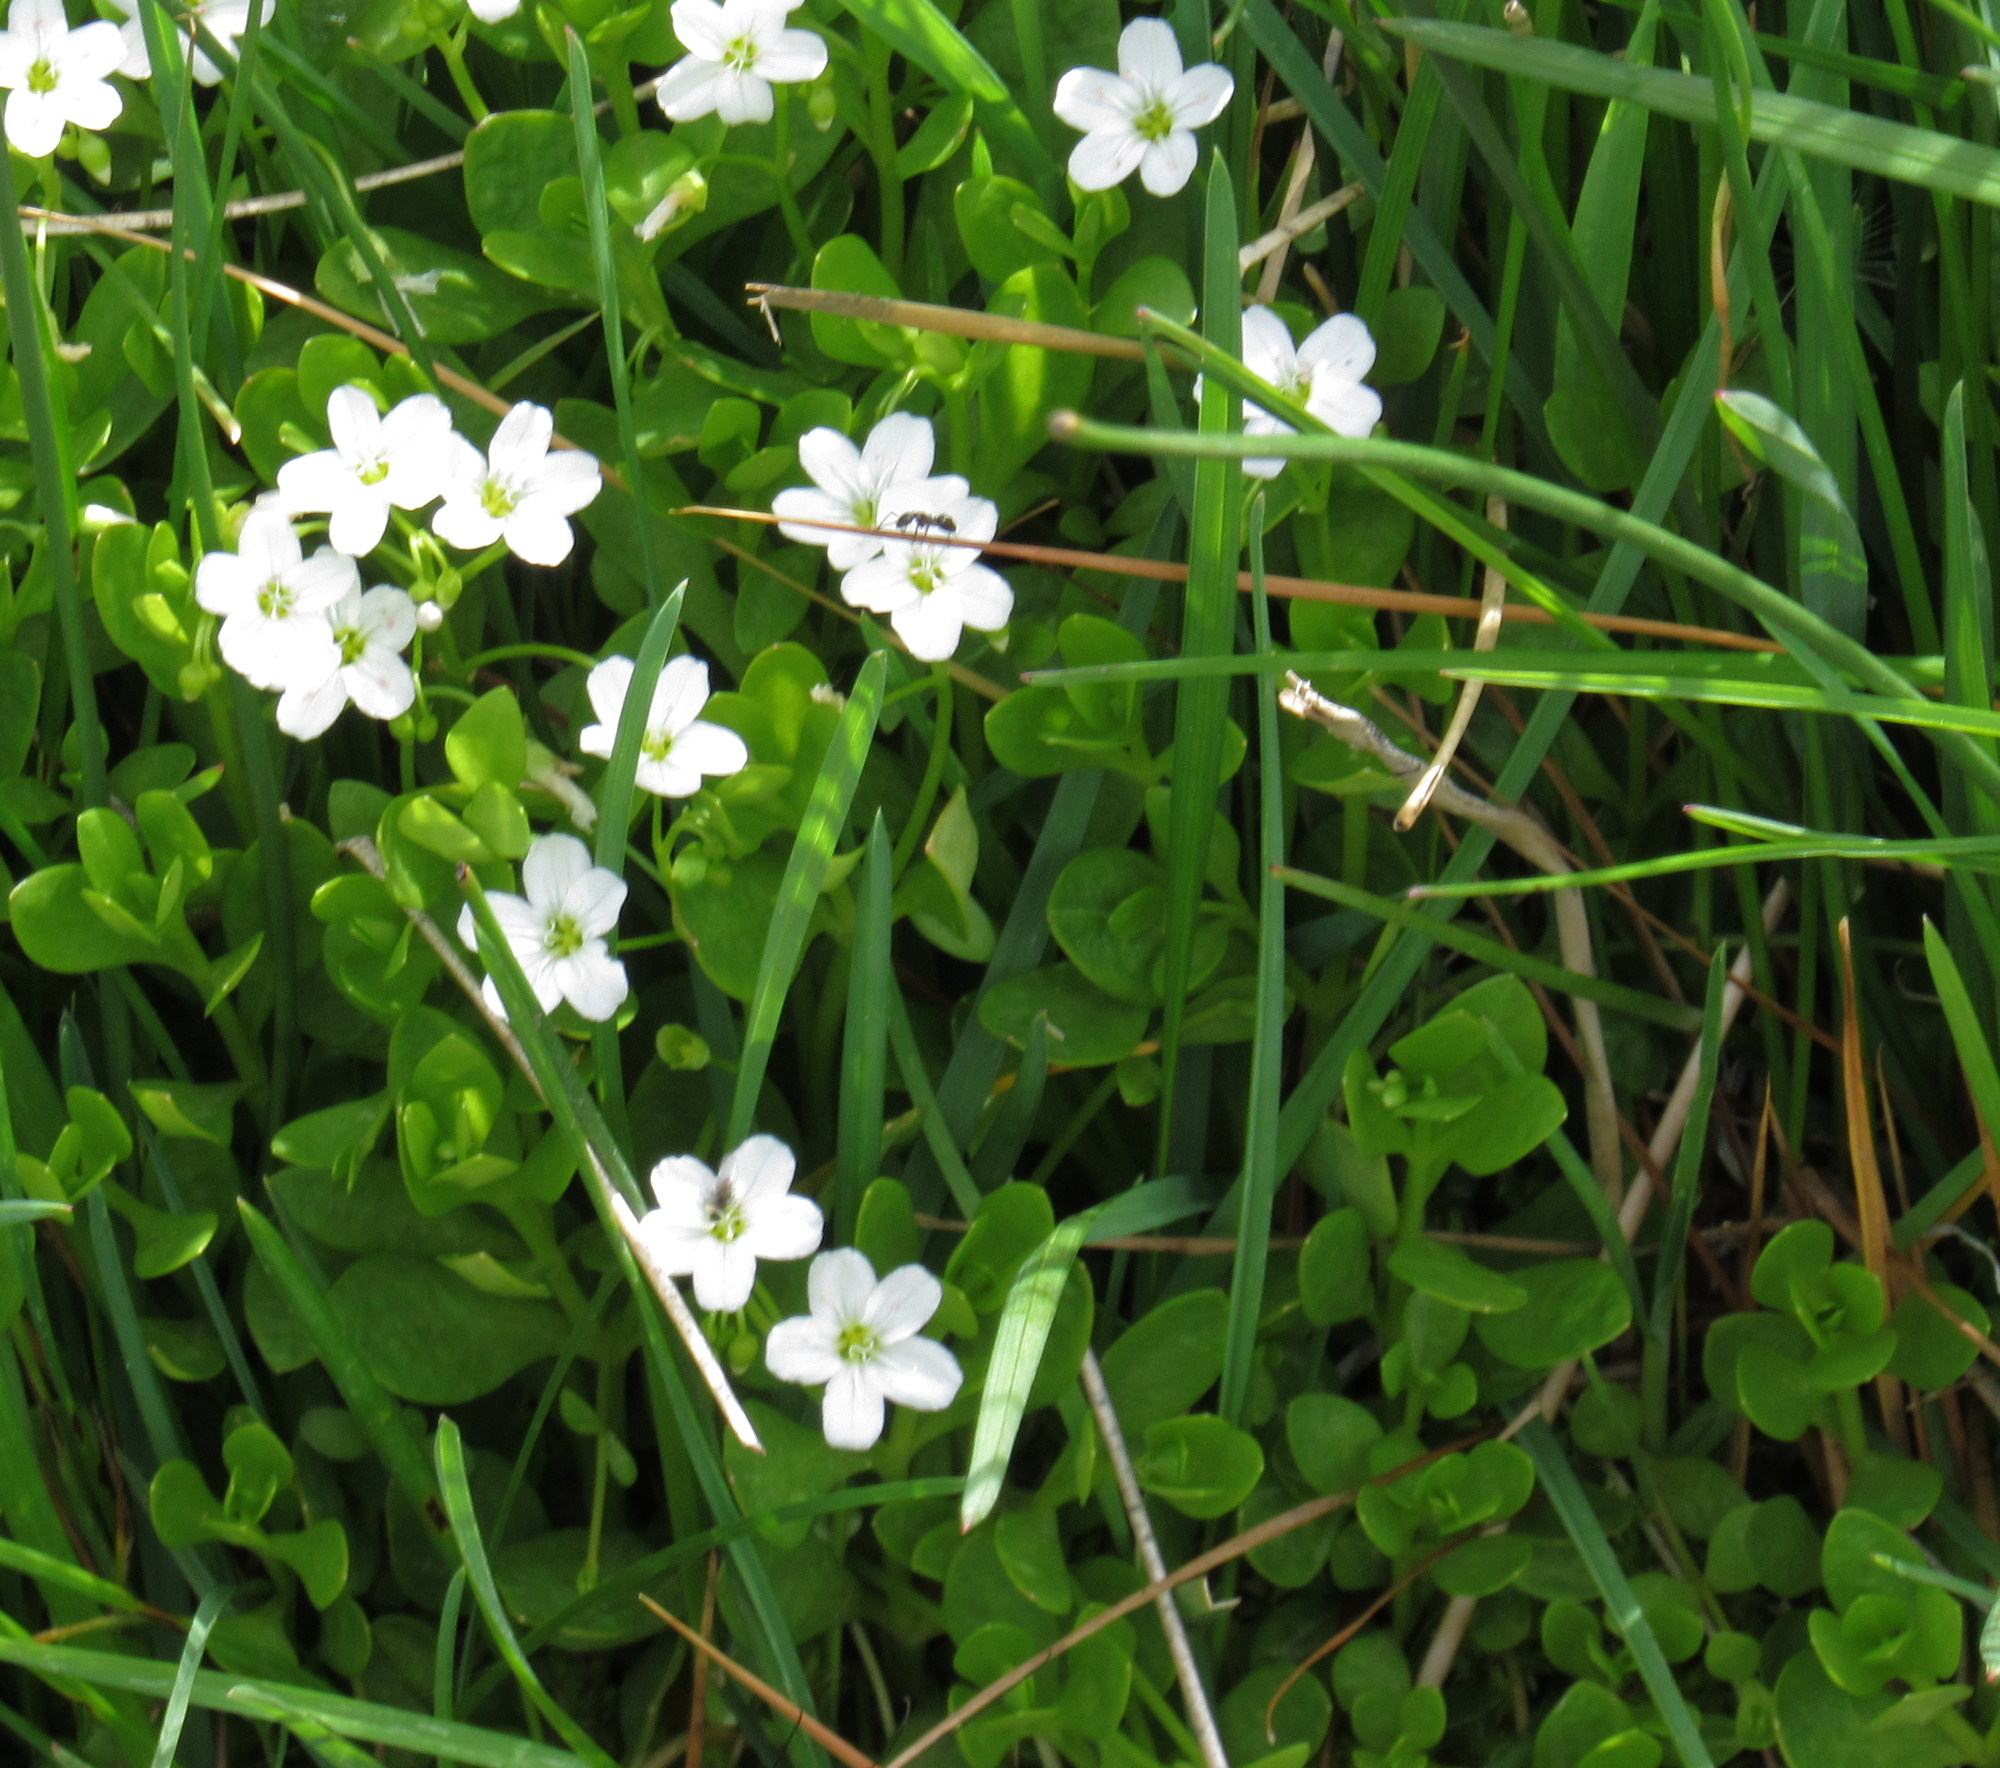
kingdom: Plantae
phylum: Tracheophyta
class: Magnoliopsida
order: Caryophyllales
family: Montiaceae
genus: Montia
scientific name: Montia chamissoi
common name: Chamisso's candyflower
